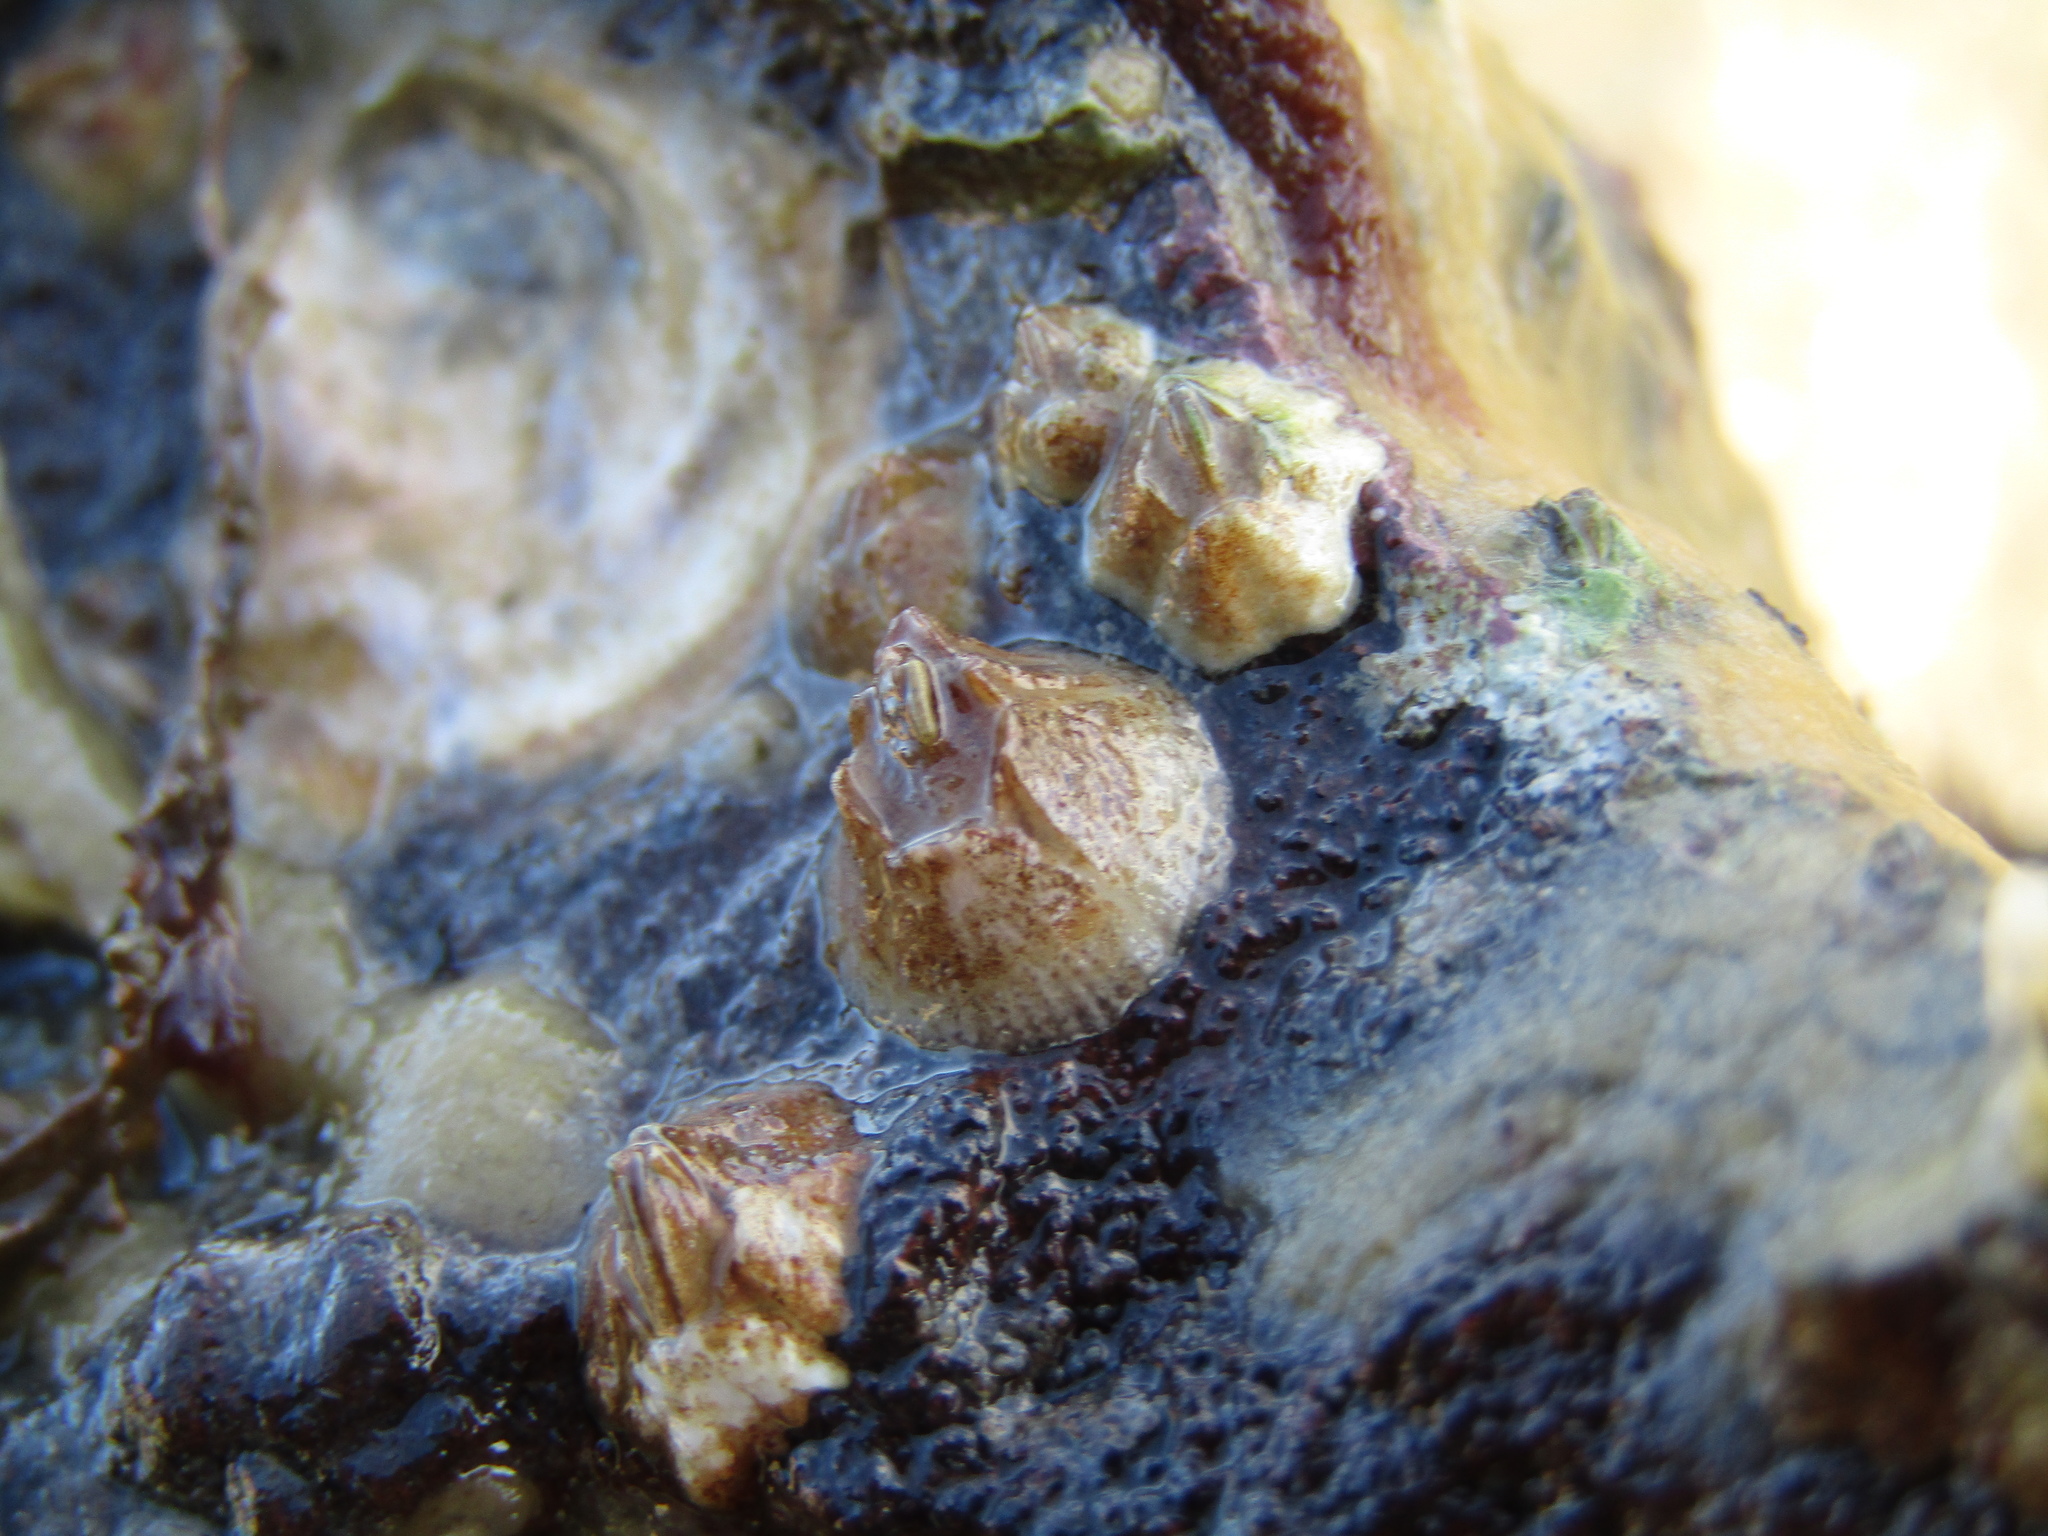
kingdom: Animalia
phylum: Arthropoda
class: Maxillopoda
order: Sessilia
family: Balanidae
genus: Fistulobalanus
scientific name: Fistulobalanus kondakovi
